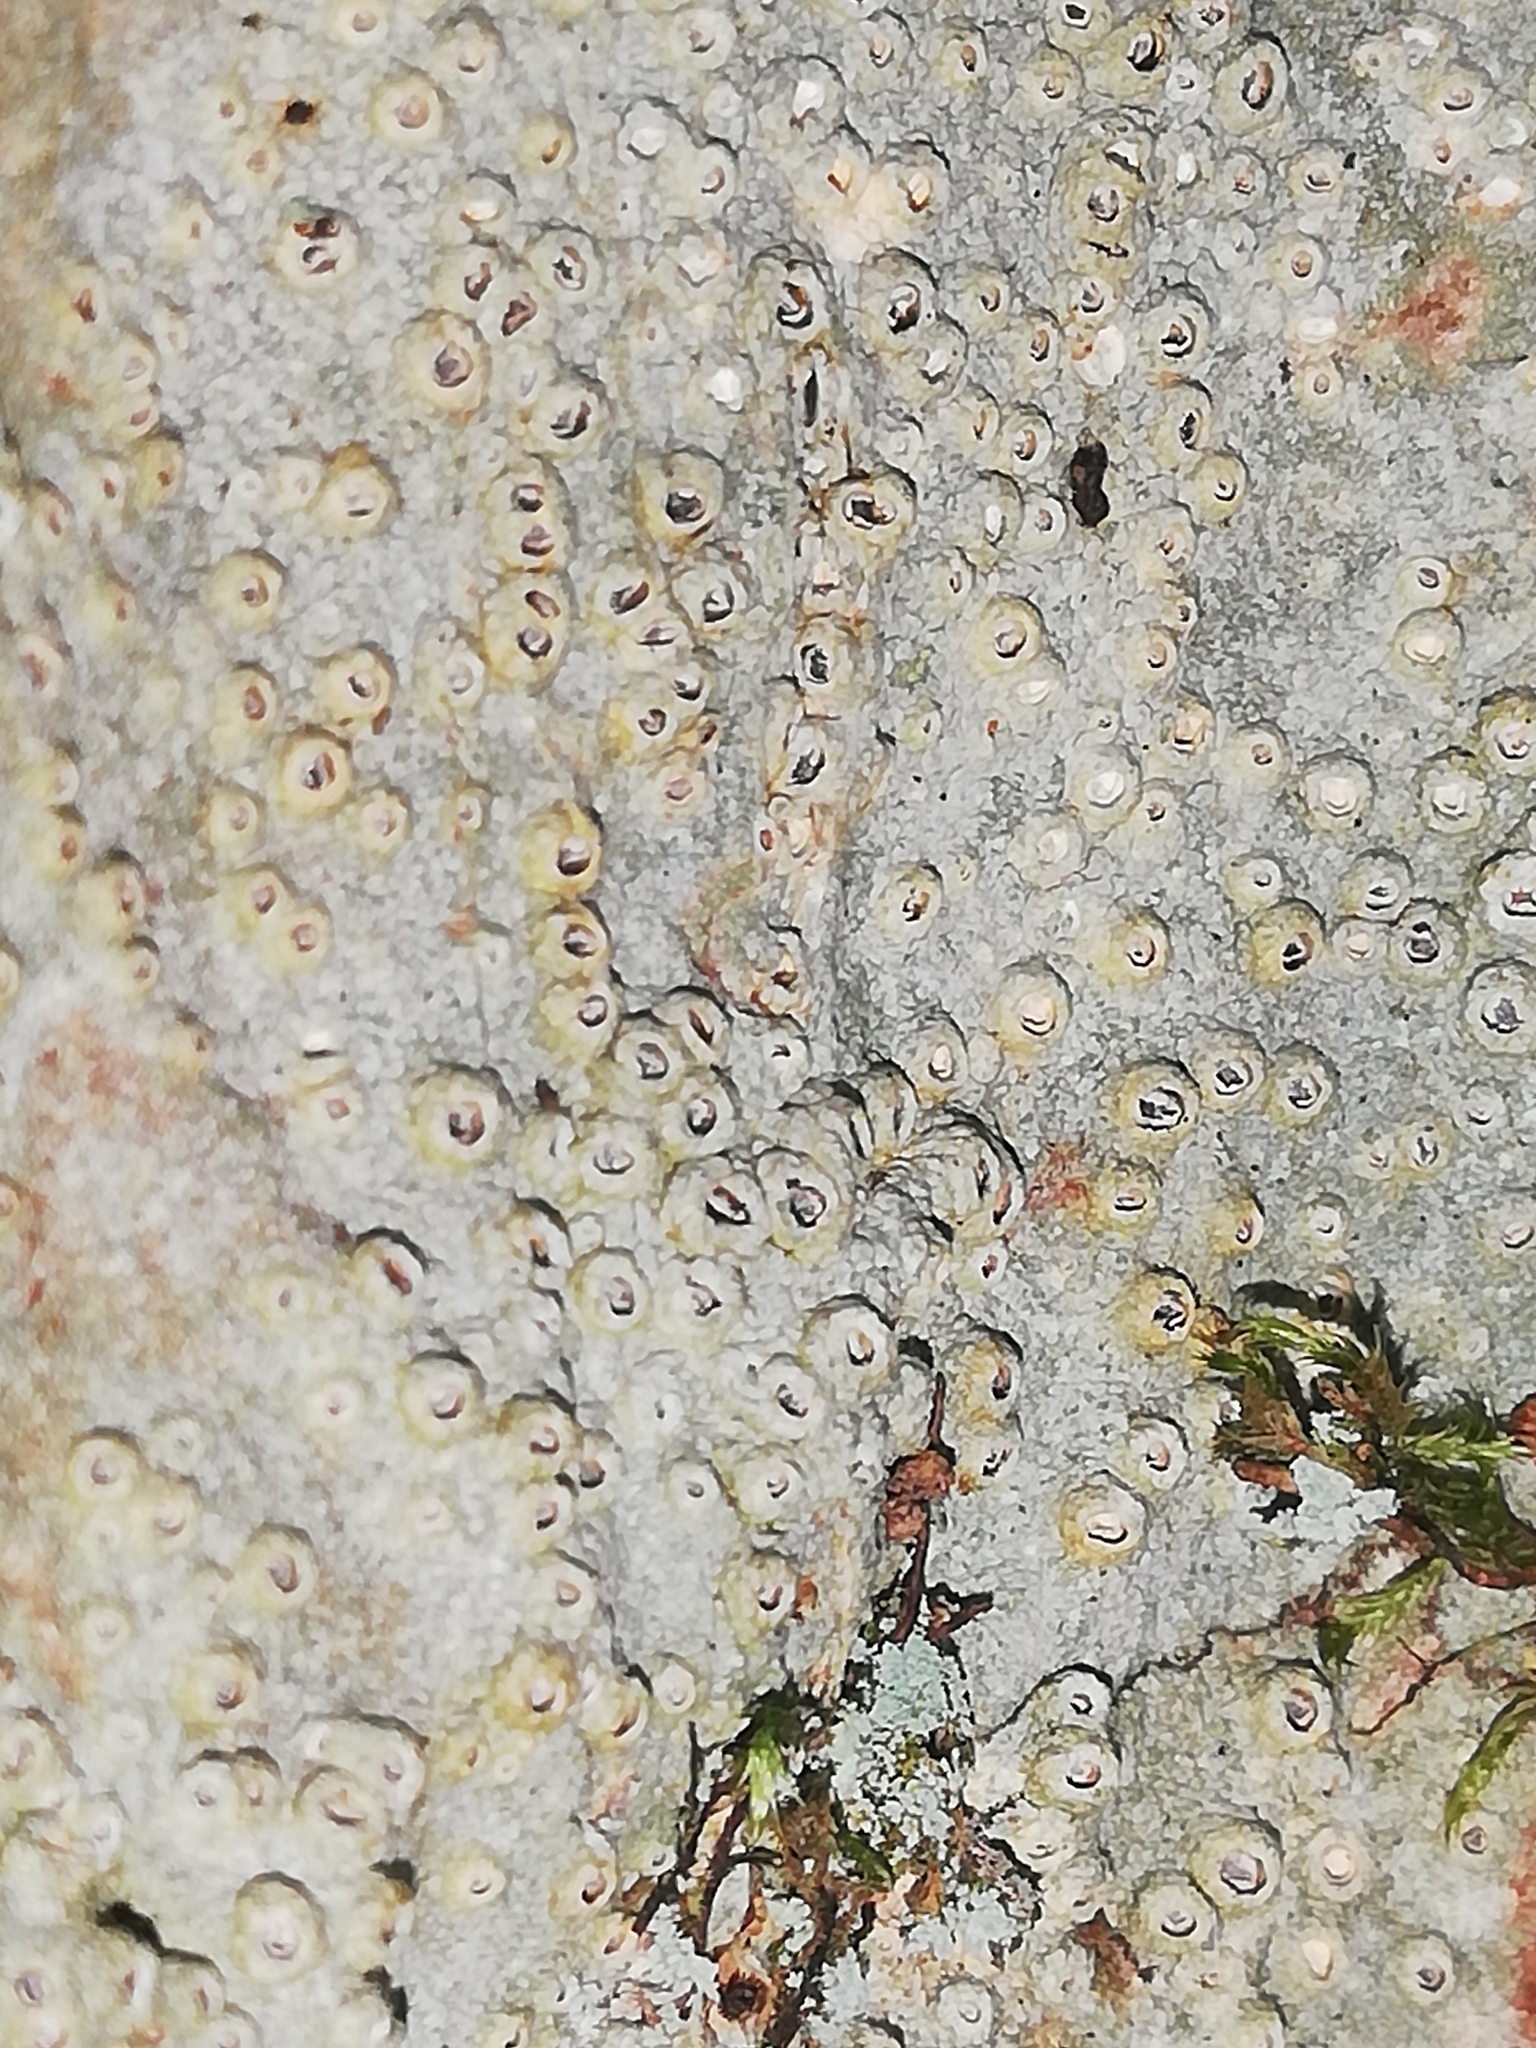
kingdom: Fungi
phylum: Ascomycota
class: Lecanoromycetes
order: Ostropales
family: Graphidaceae
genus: Thelotrema
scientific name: Thelotrema lepadinum
